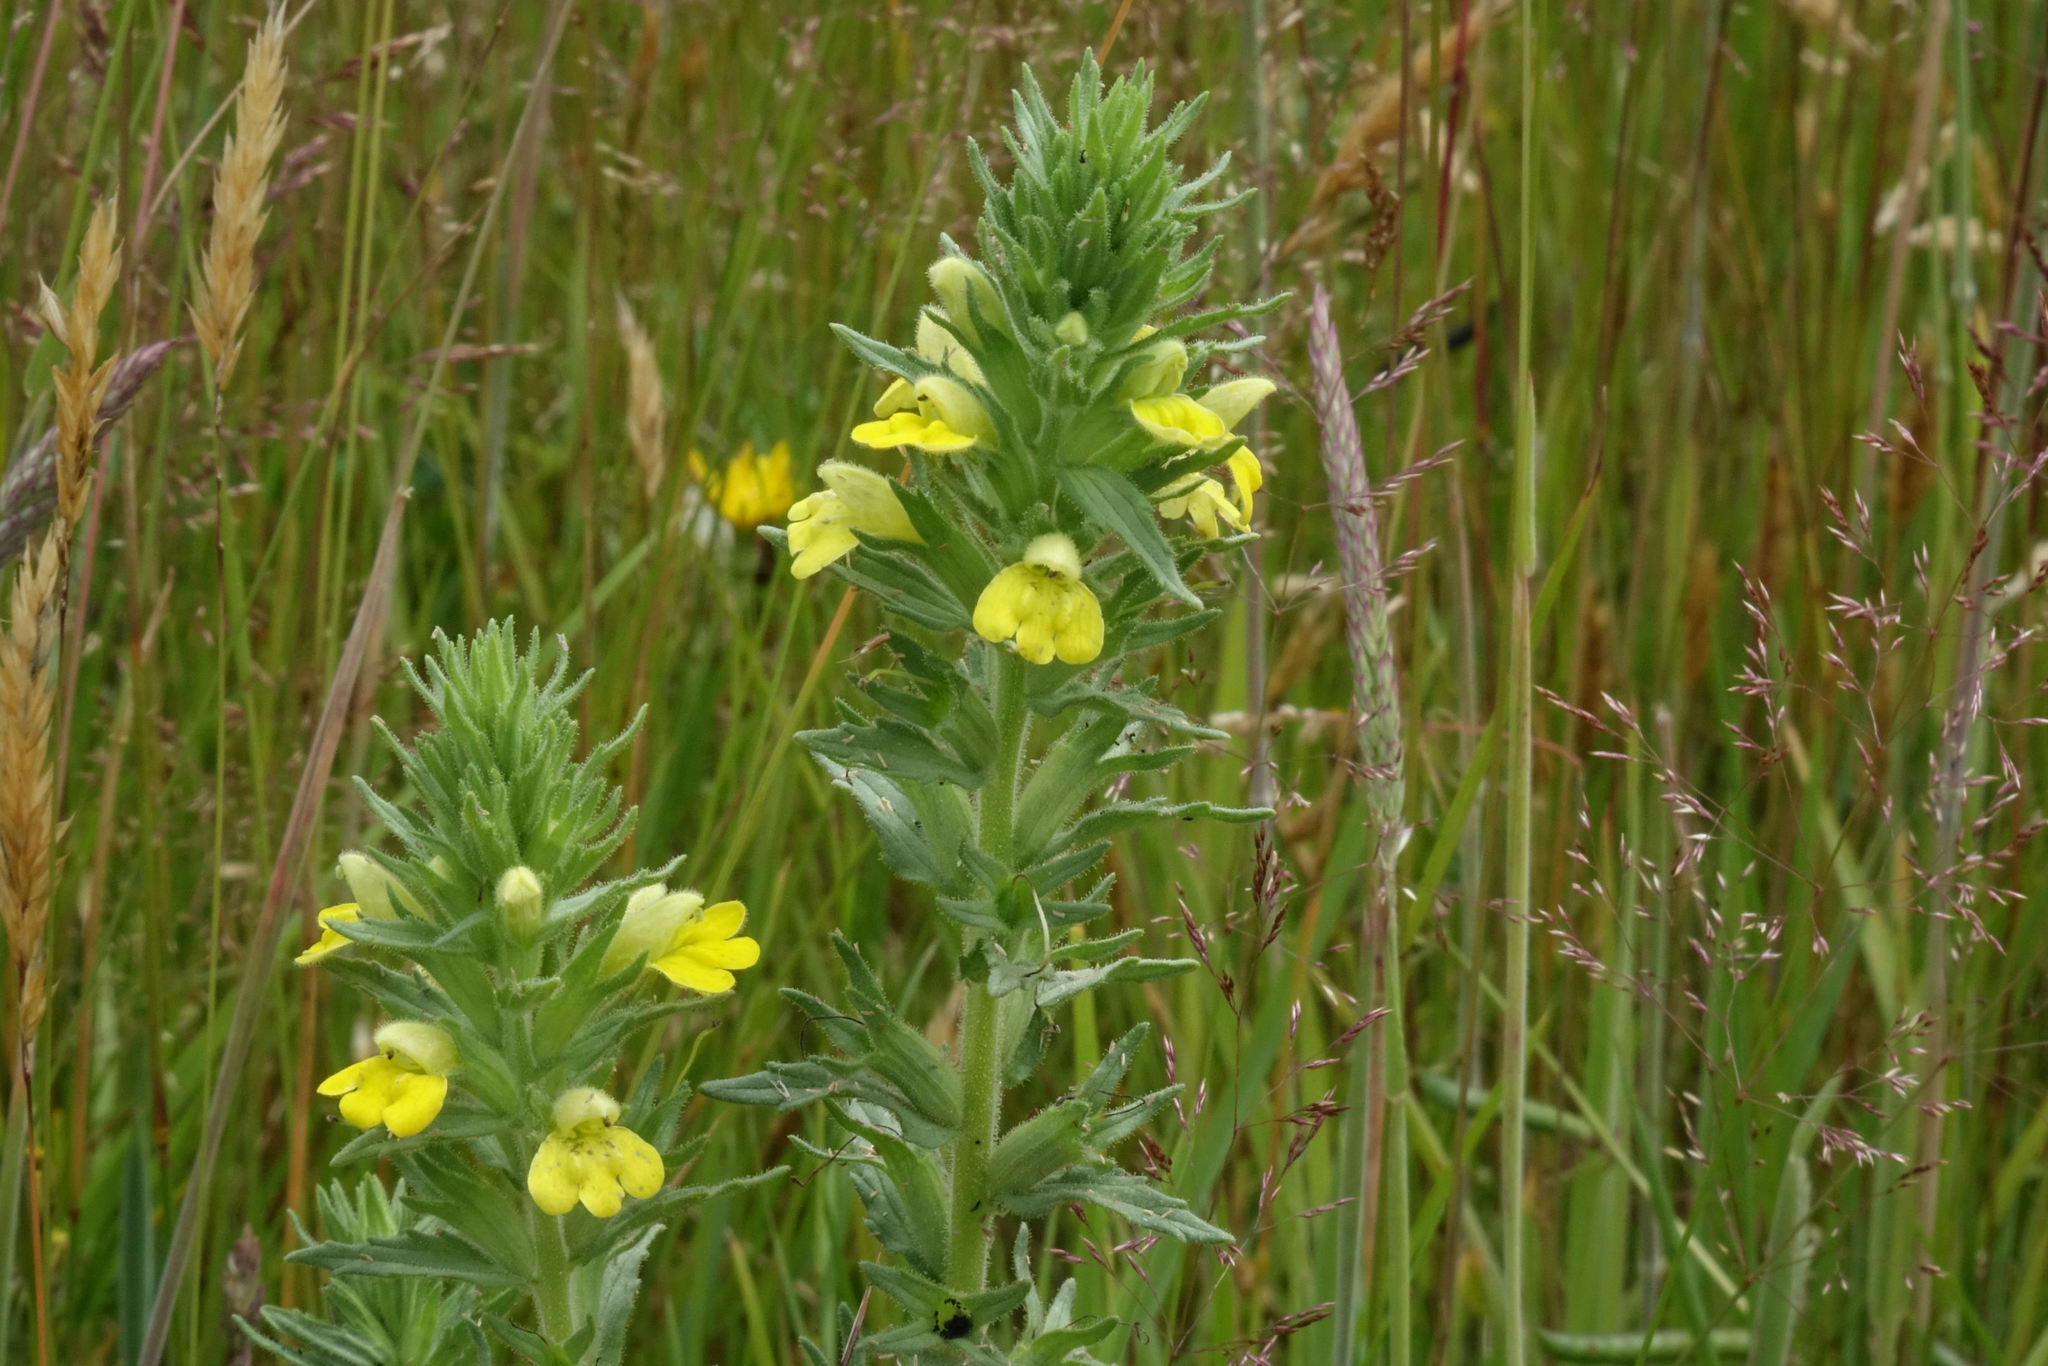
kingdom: Plantae
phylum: Tracheophyta
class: Magnoliopsida
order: Lamiales
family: Orobanchaceae
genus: Bellardia
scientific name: Bellardia viscosa
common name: Sticky parentucellia
